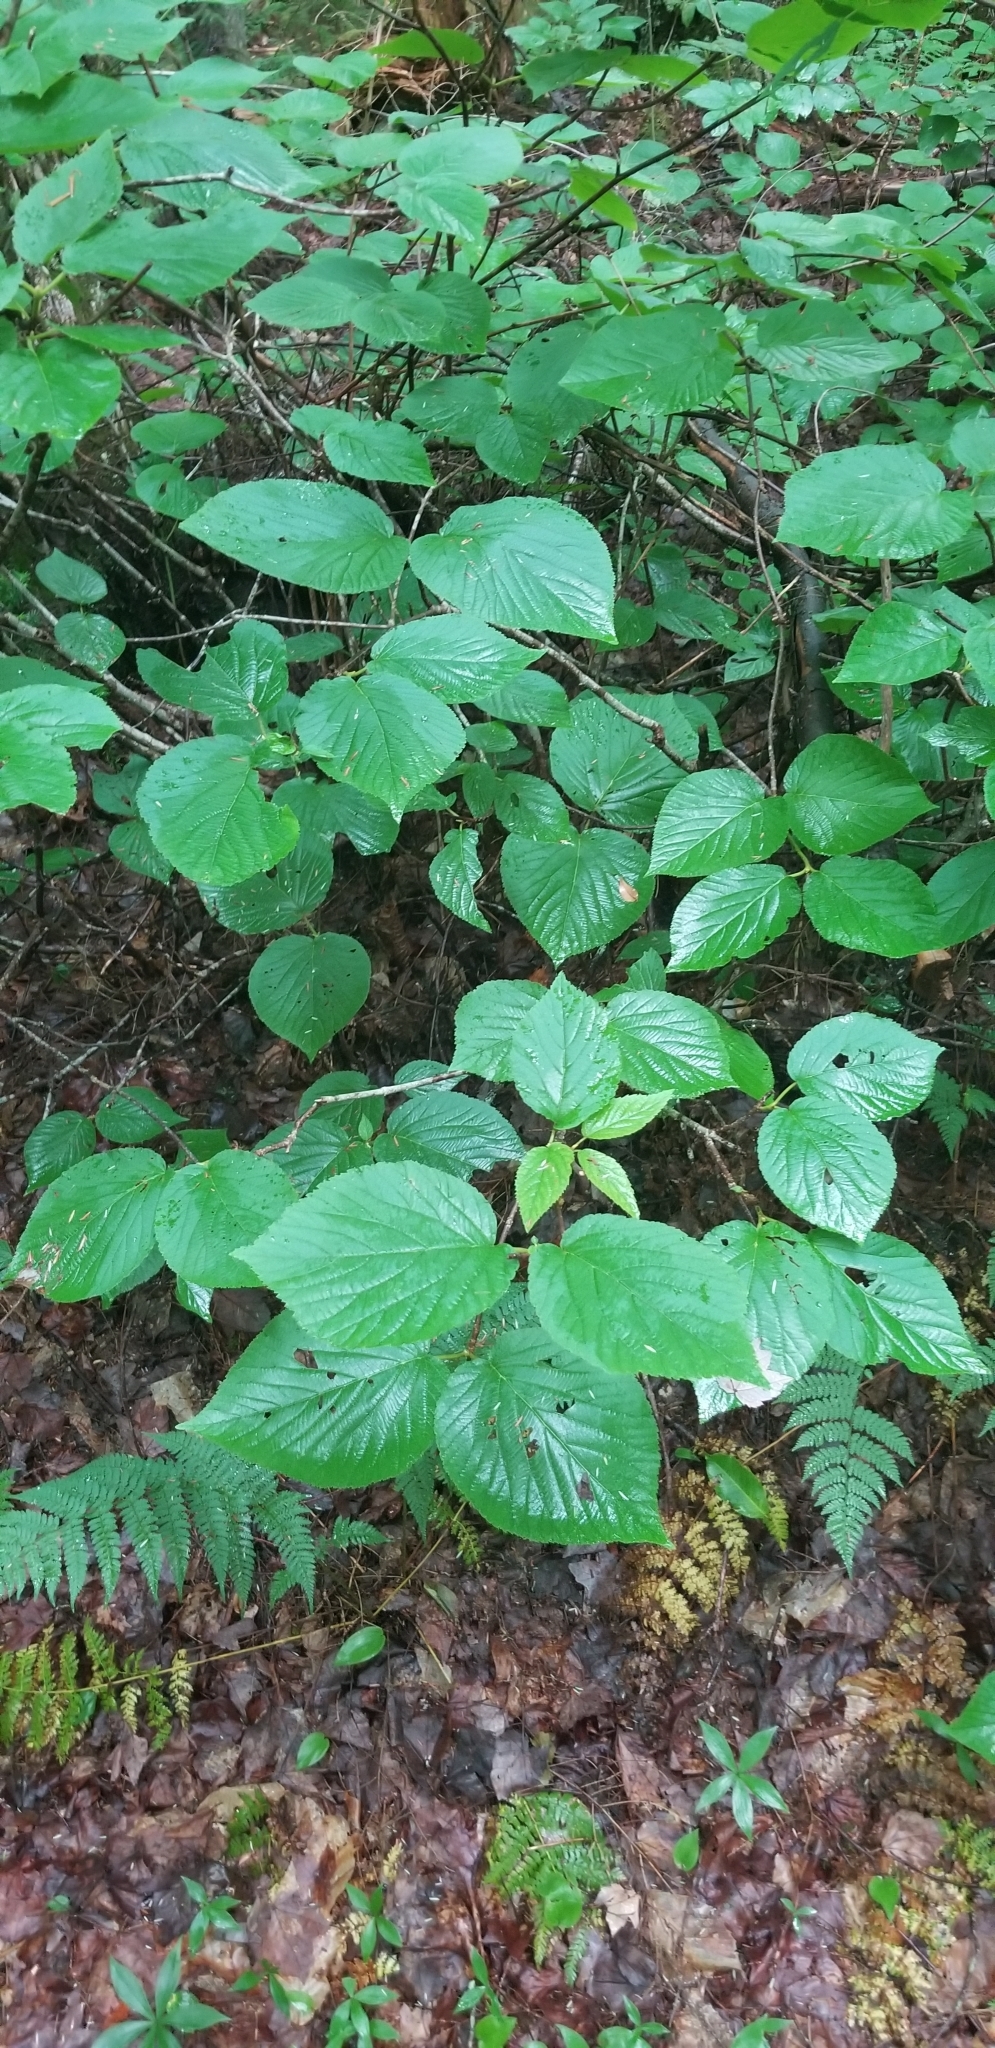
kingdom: Plantae
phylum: Tracheophyta
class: Magnoliopsida
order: Dipsacales
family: Viburnaceae
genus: Viburnum
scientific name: Viburnum lantanoides
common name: Hobblebush
